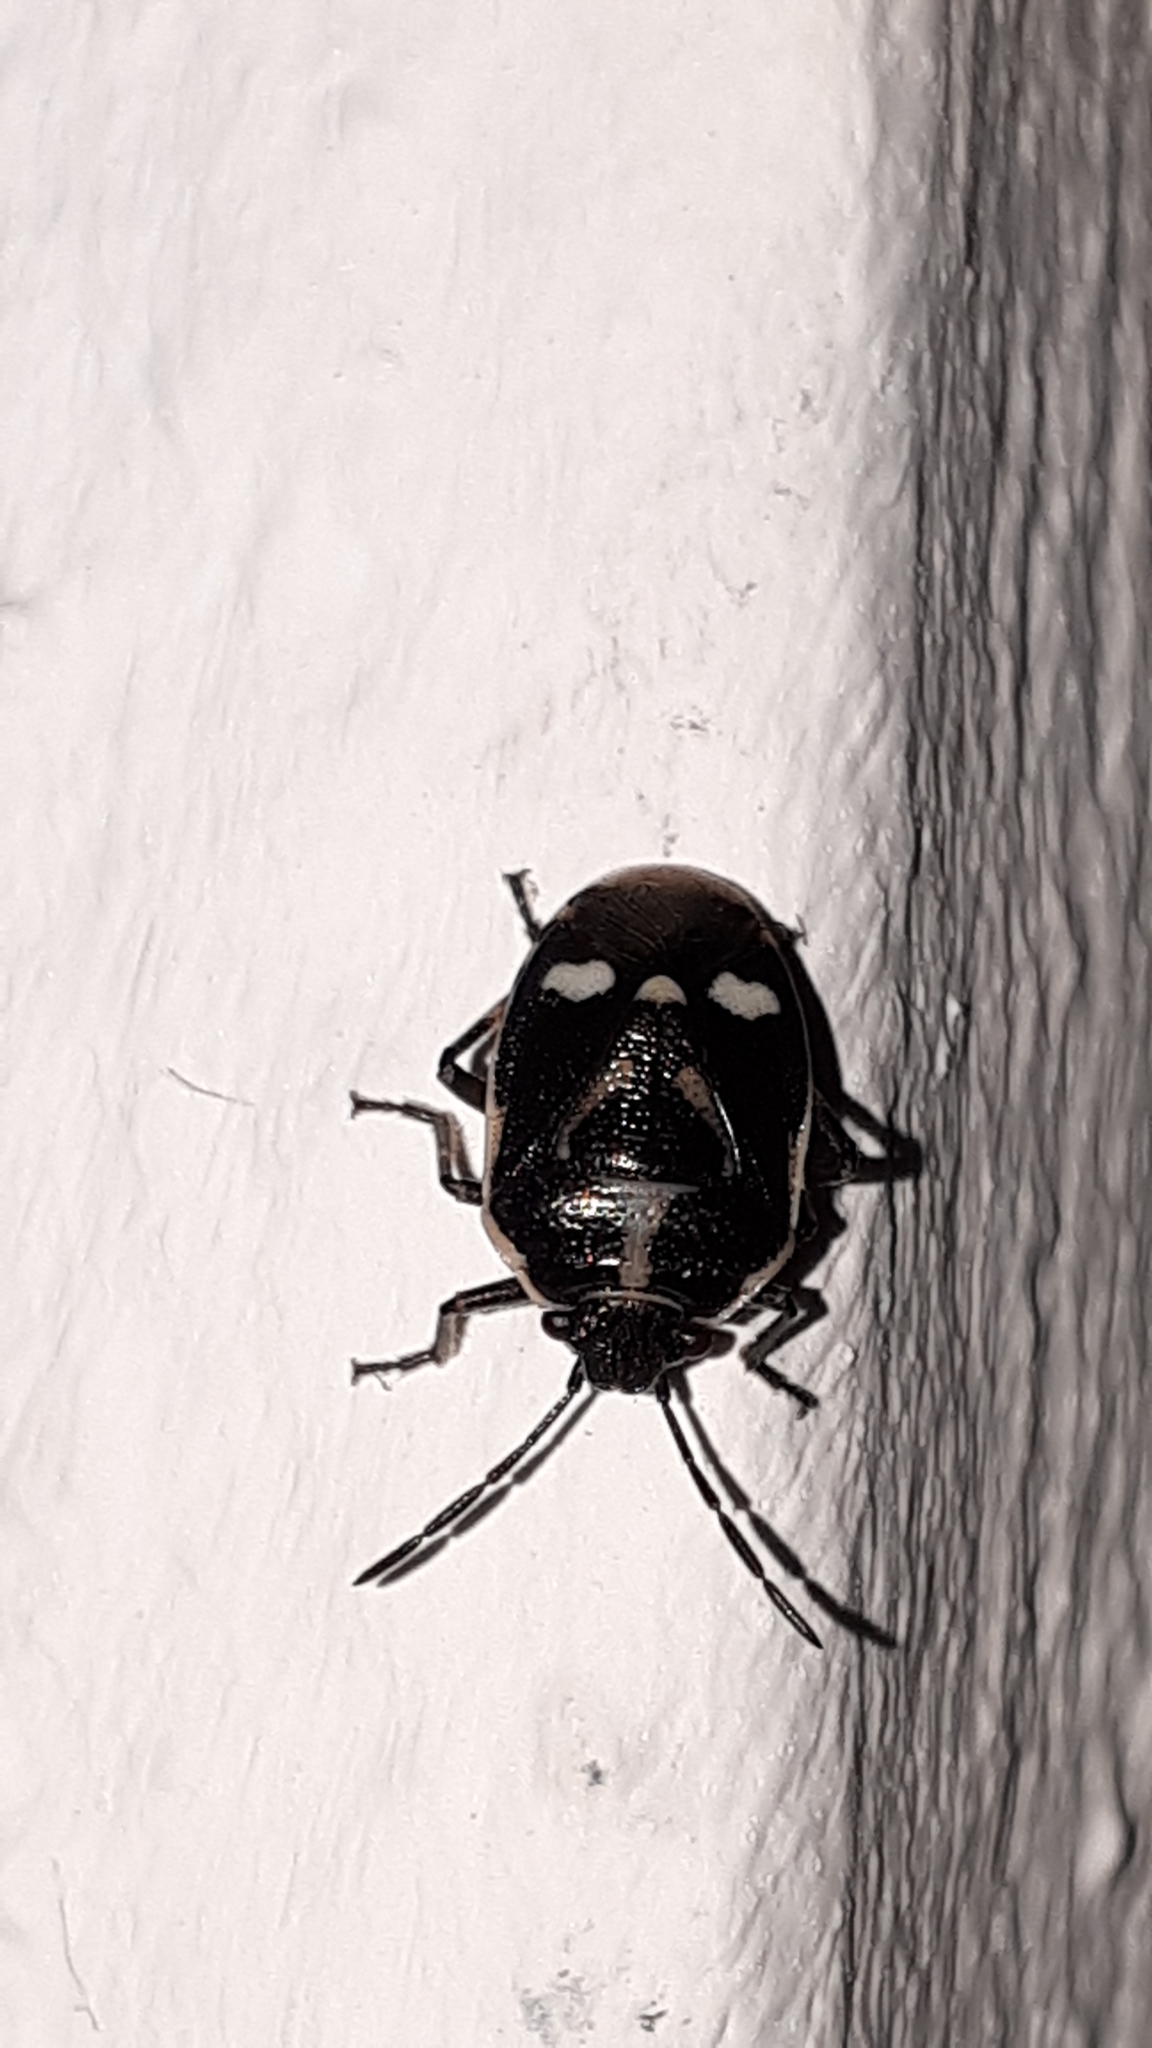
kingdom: Animalia
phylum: Arthropoda
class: Insecta
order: Hemiptera
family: Pentatomidae
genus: Eurydema
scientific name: Eurydema oleracea
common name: Cabbage bug
